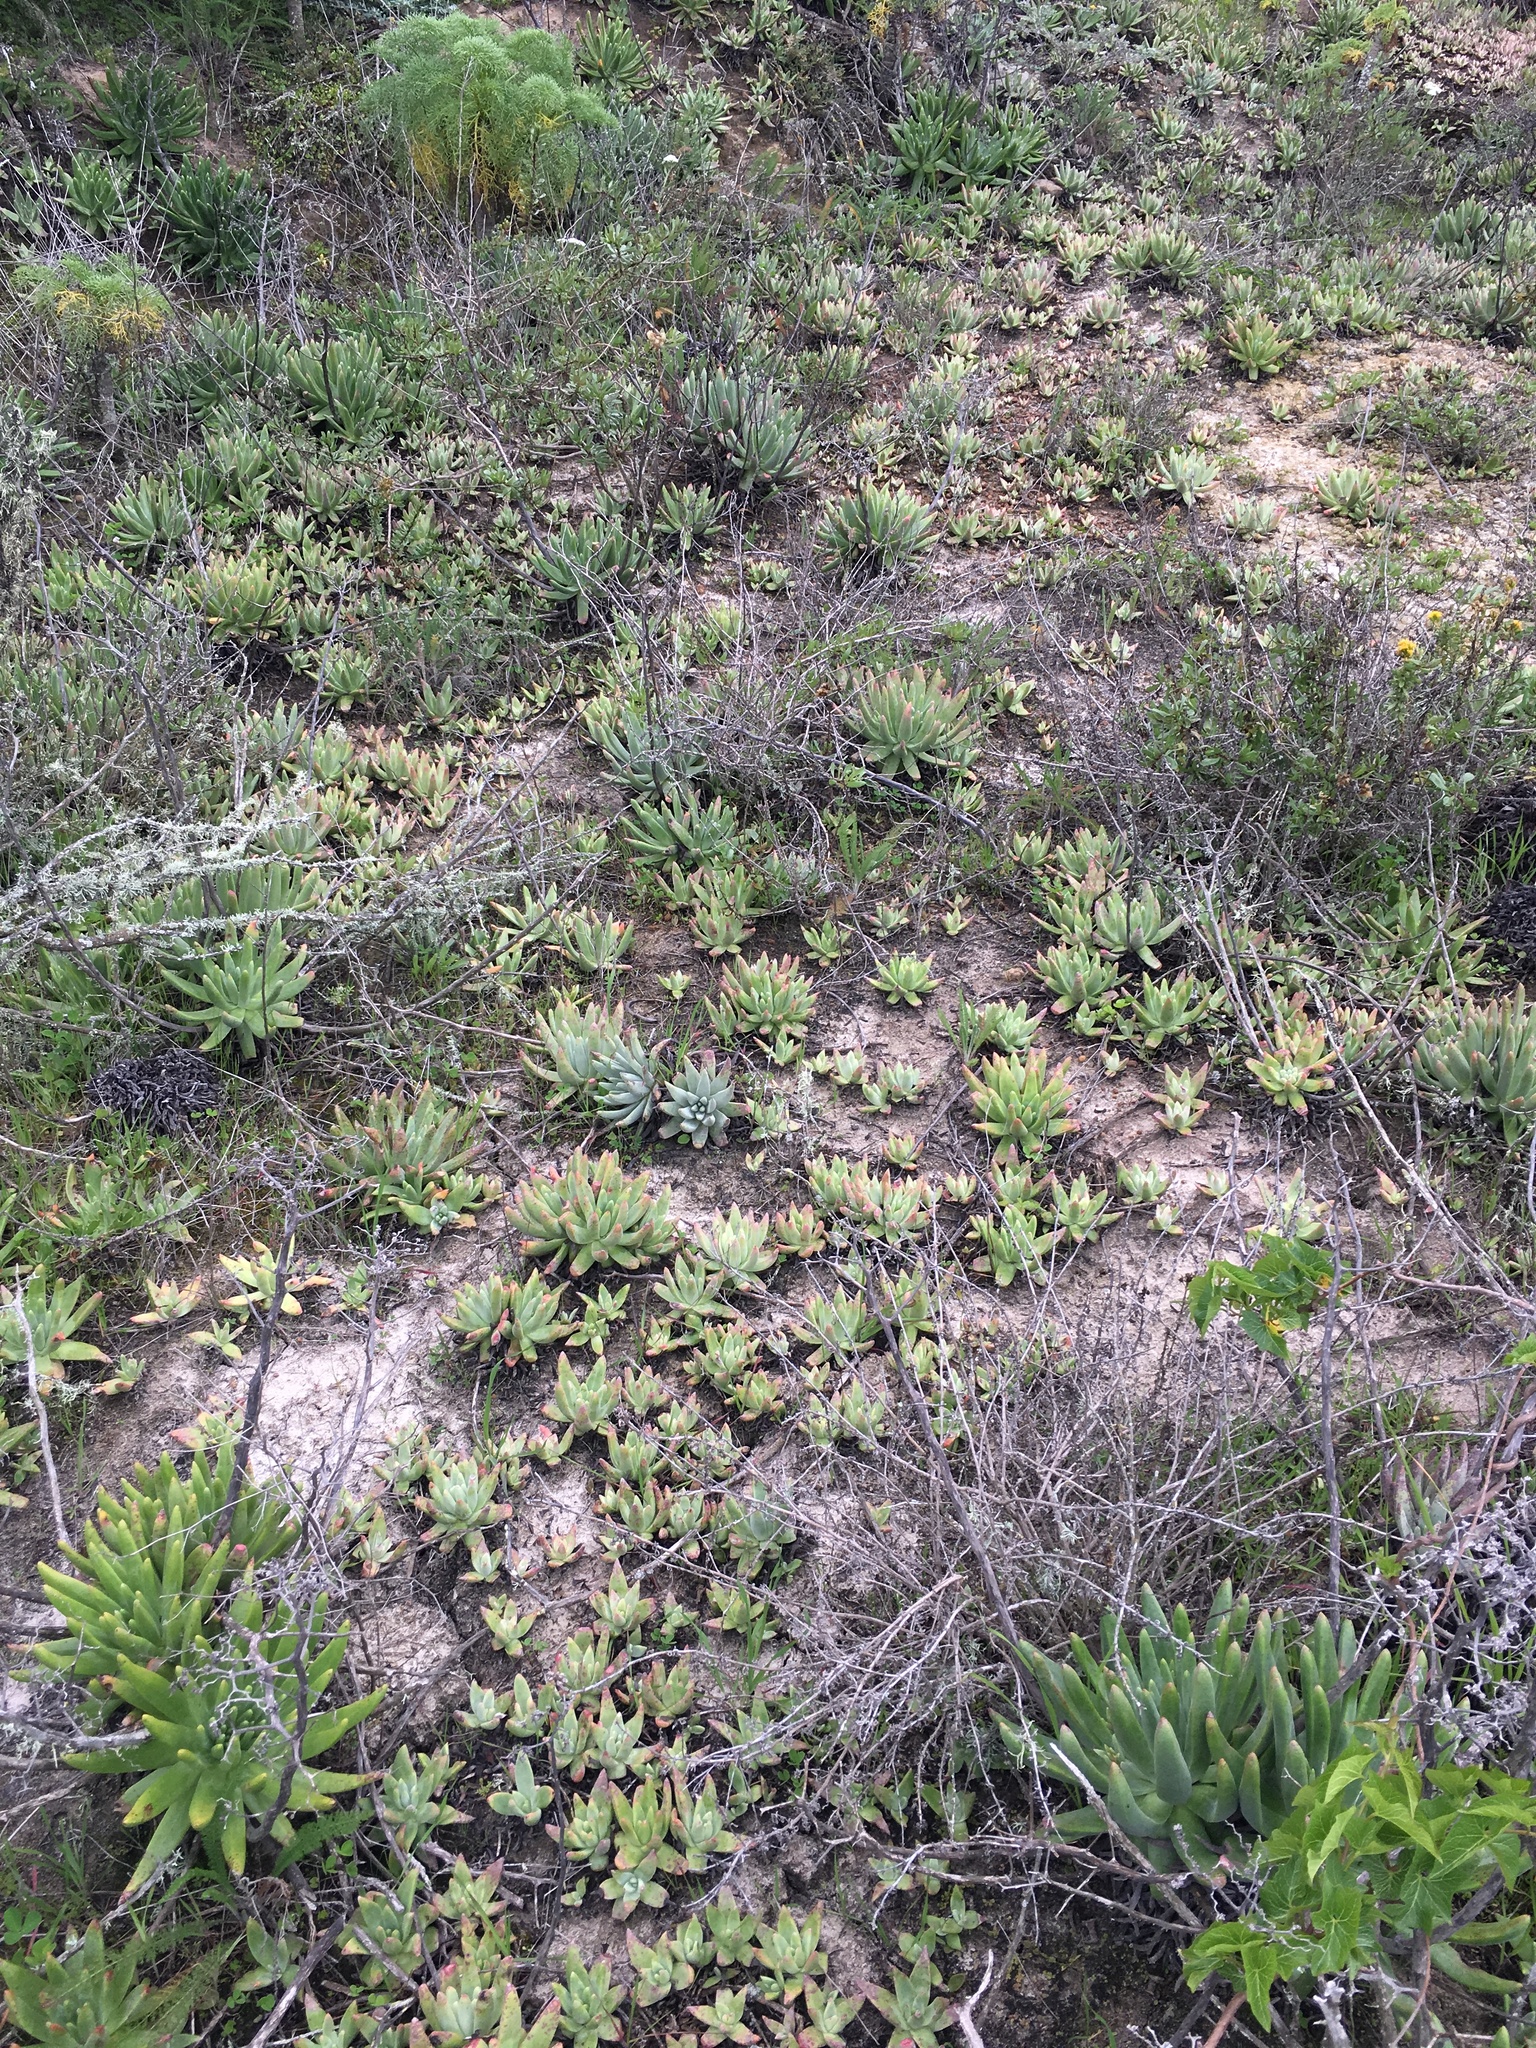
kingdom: Plantae
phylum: Tracheophyta
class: Magnoliopsida
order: Saxifragales
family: Crassulaceae
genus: Dudleya
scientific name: Dudleya virens
